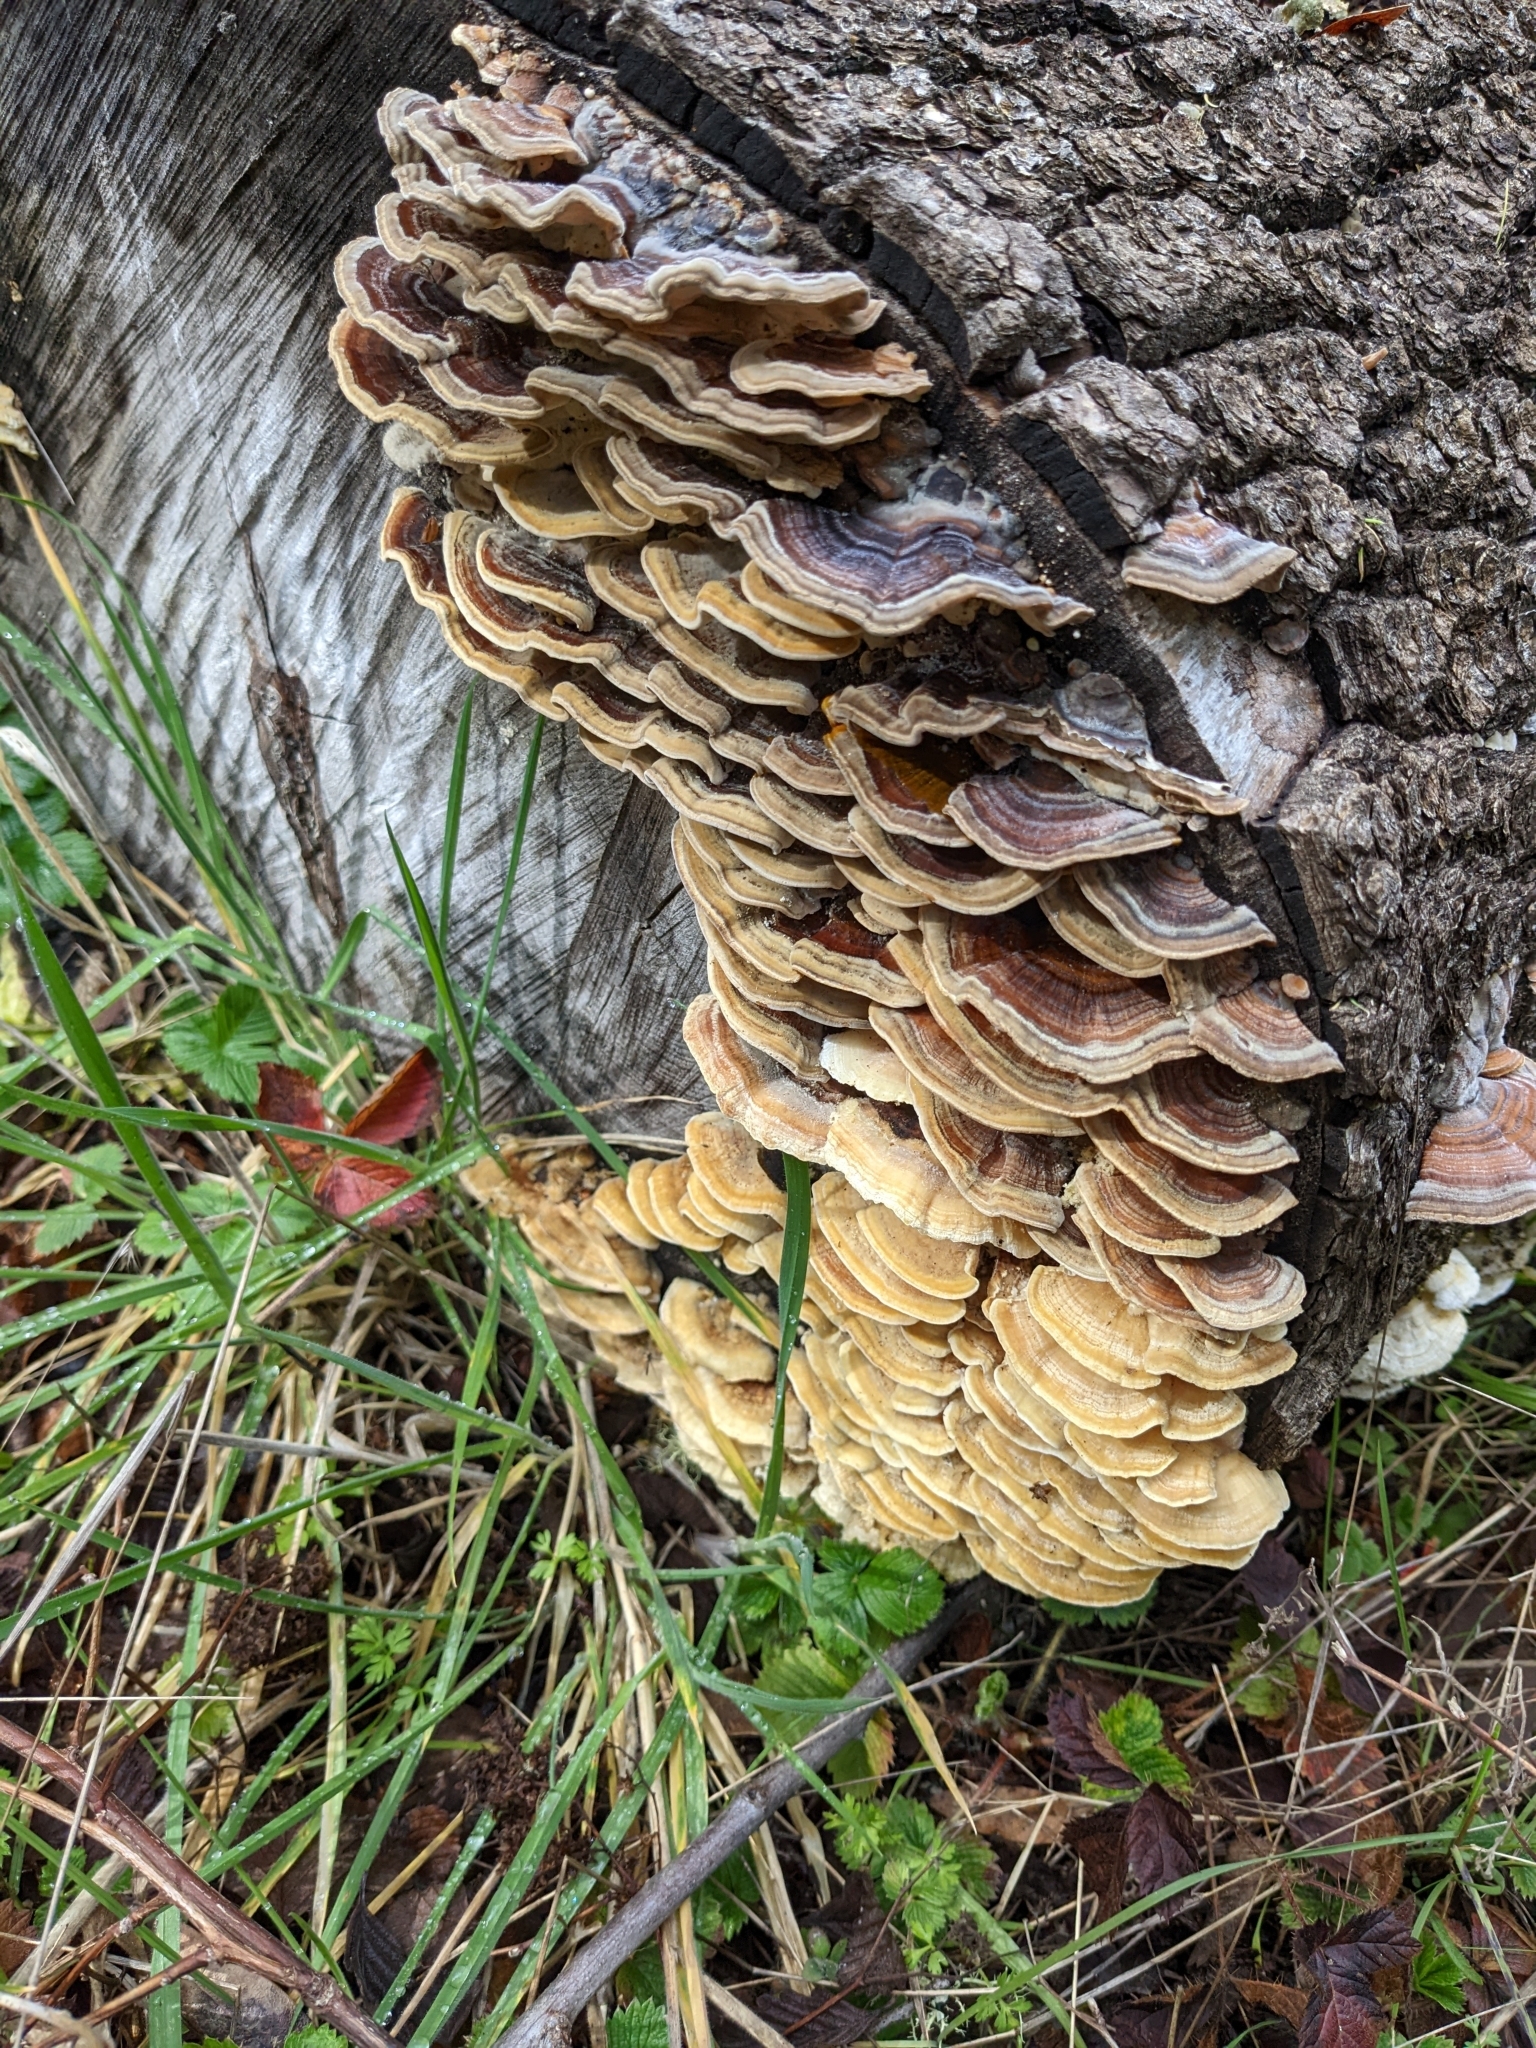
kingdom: Fungi
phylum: Basidiomycota
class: Agaricomycetes
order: Polyporales
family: Polyporaceae
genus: Trametes
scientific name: Trametes versicolor
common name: Turkeytail
